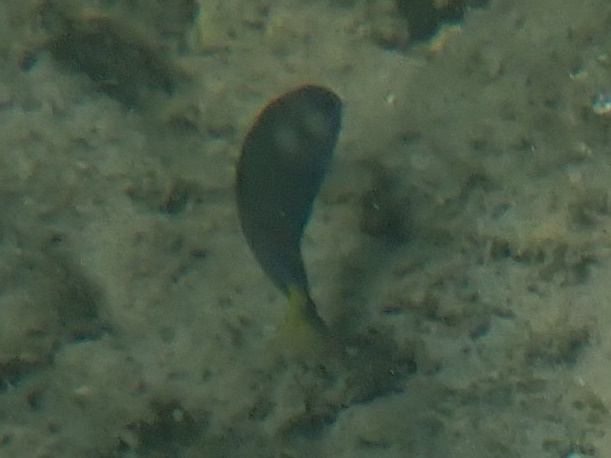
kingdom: Animalia
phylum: Chordata
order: Perciformes
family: Labridae
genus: Thalassoma
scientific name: Thalassoma lunare
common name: Blue wrasse
